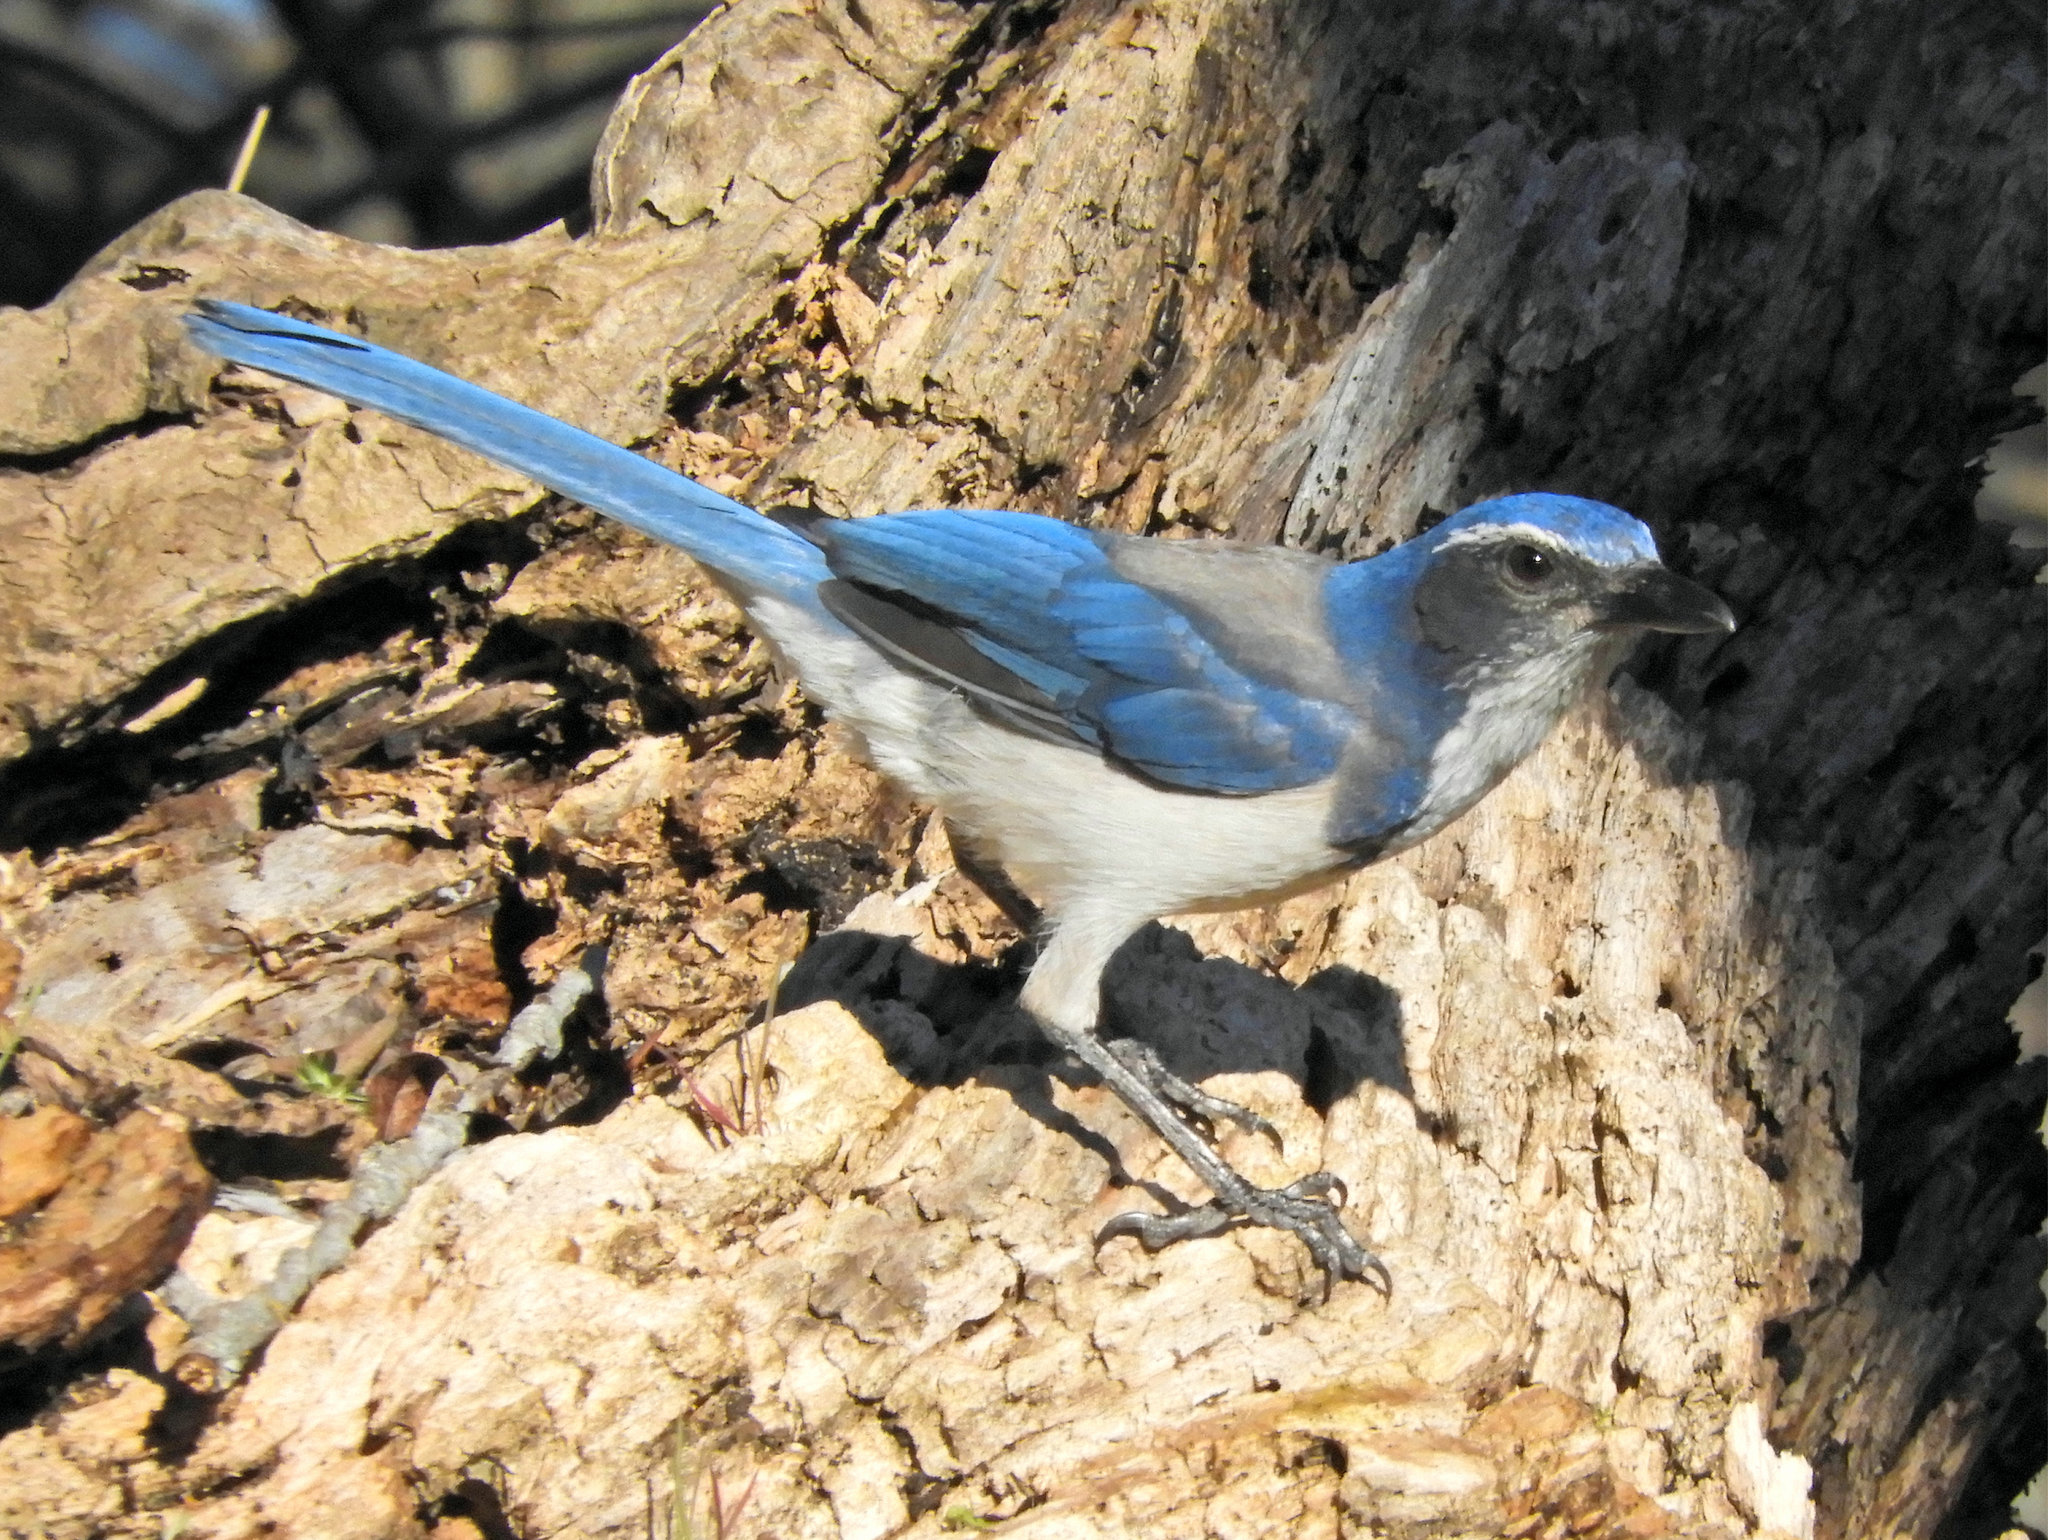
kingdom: Animalia
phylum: Chordata
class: Aves
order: Passeriformes
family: Corvidae
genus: Aphelocoma
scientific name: Aphelocoma californica
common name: California scrub-jay
